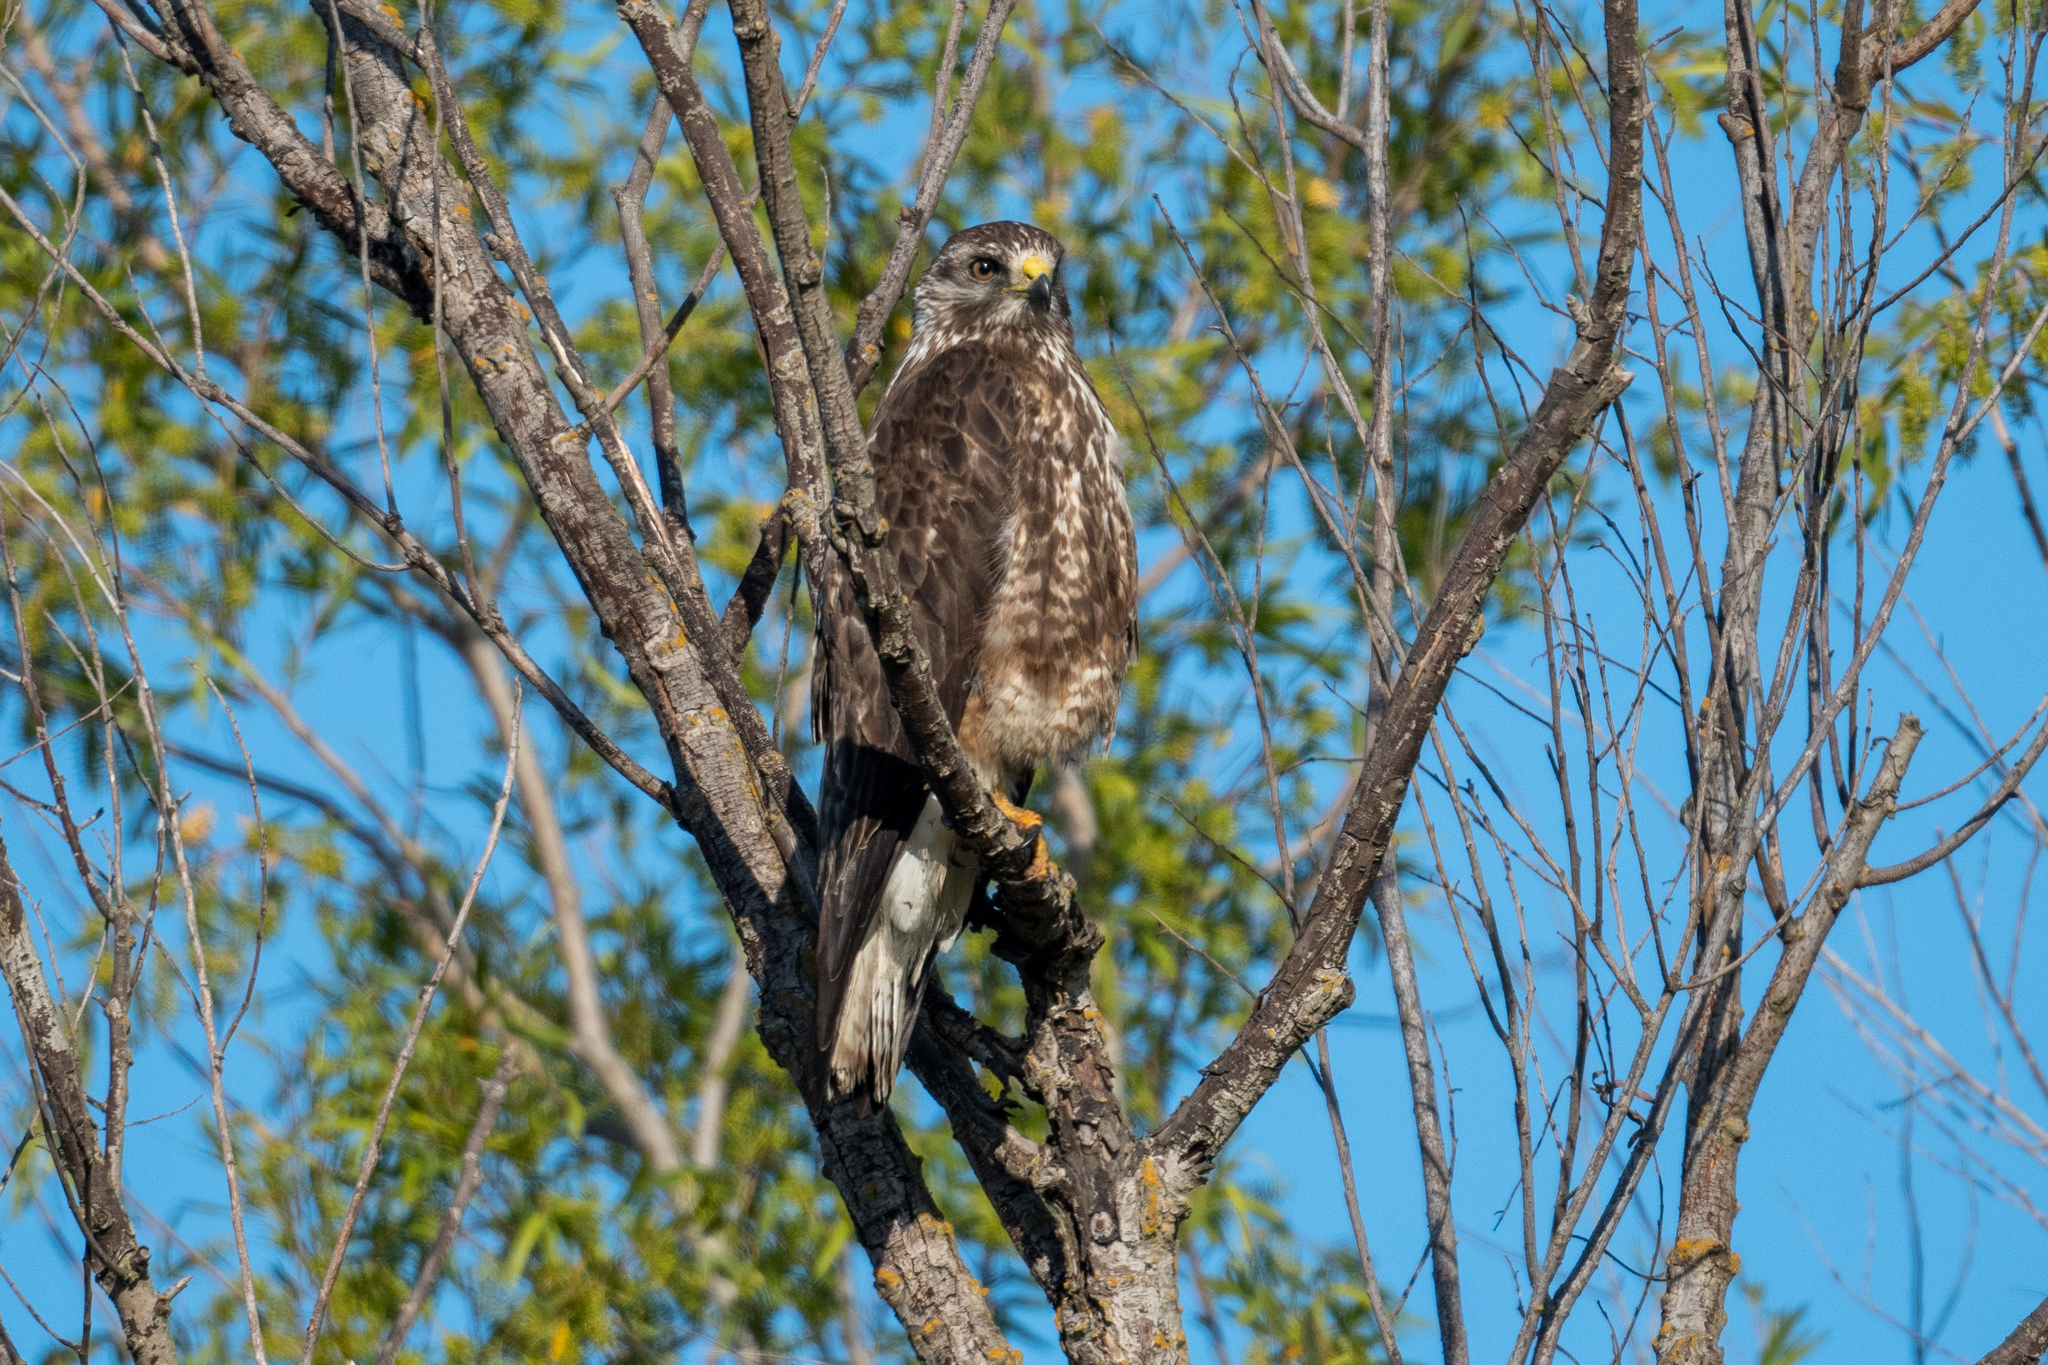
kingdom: Animalia
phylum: Chordata
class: Aves
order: Accipitriformes
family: Accipitridae
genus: Buteo
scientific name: Buteo swainsoni
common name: Swainson's hawk
